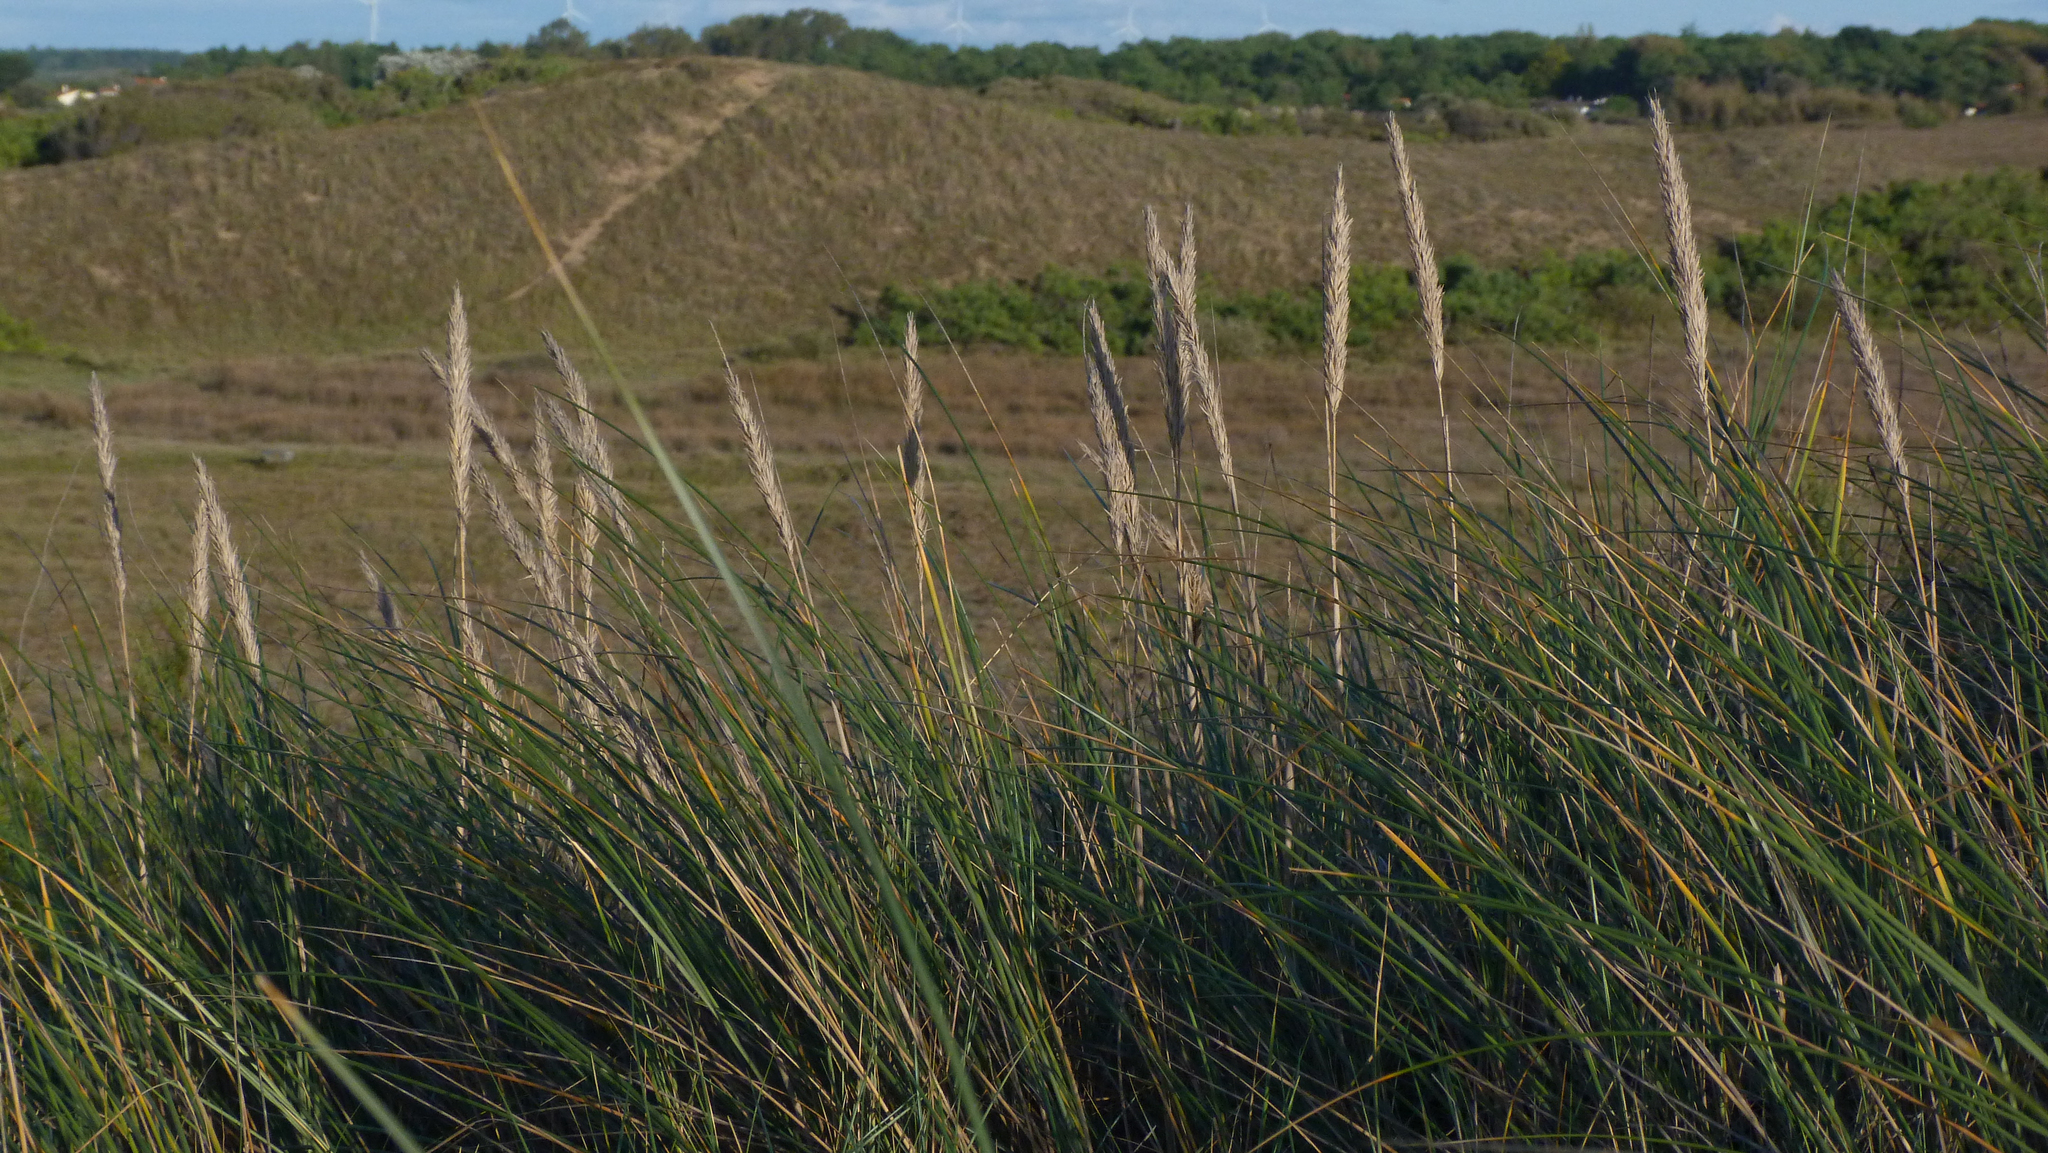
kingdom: Plantae
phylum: Tracheophyta
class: Liliopsida
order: Poales
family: Poaceae
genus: Calamagrostis
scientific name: Calamagrostis arenaria
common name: European beachgrass
